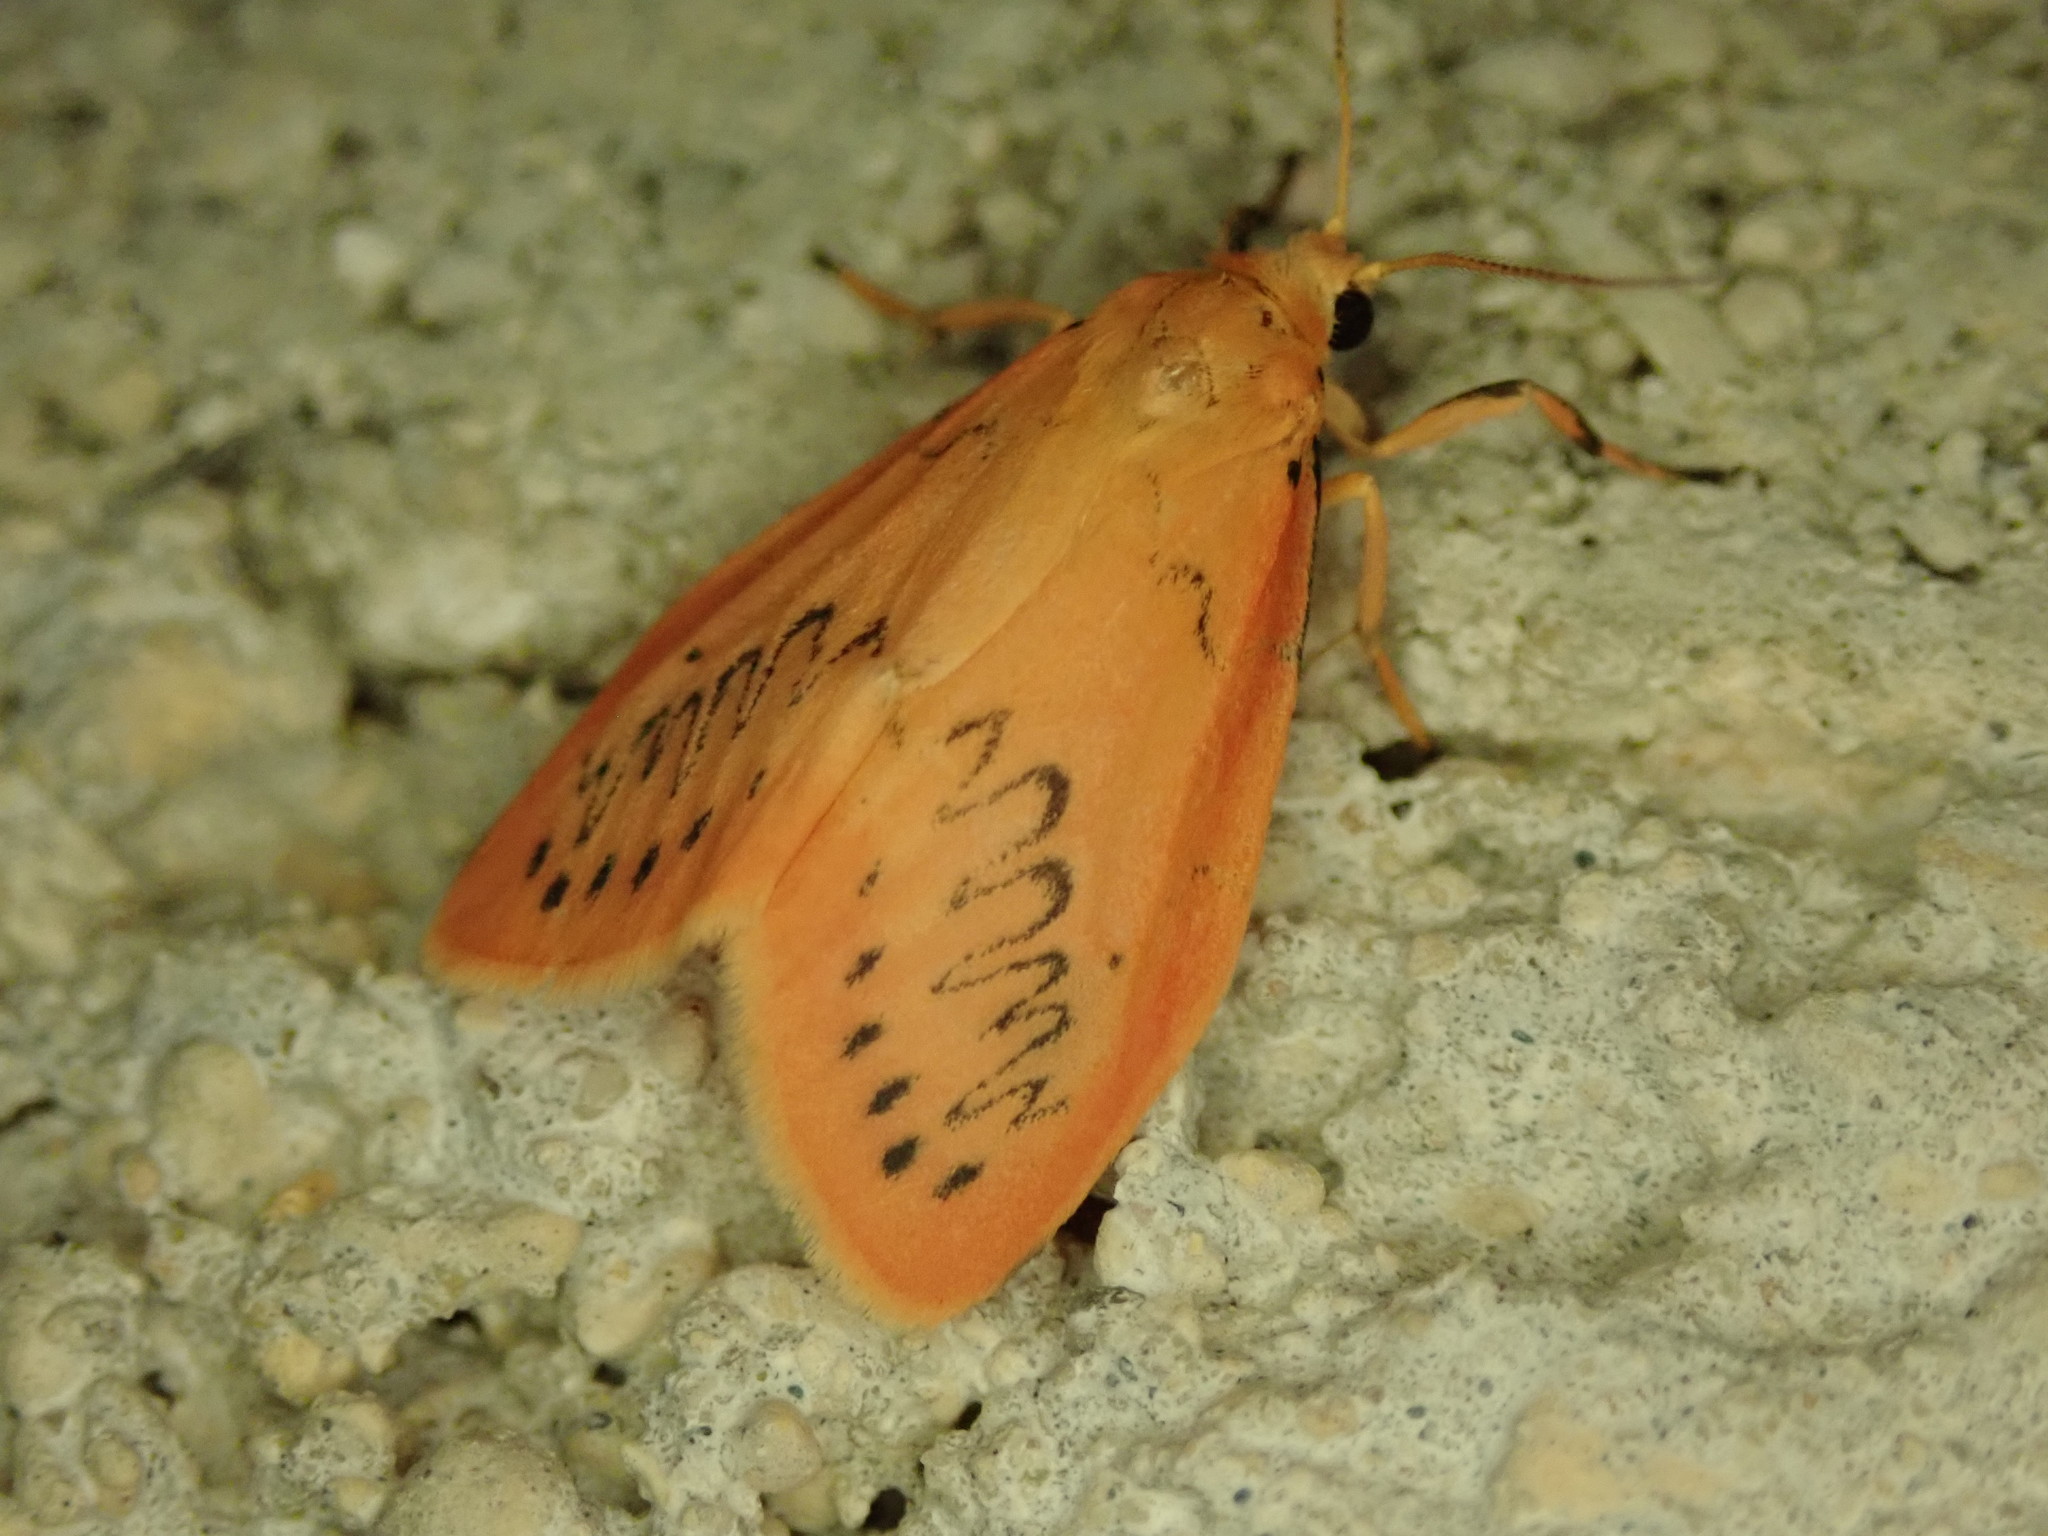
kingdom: Animalia
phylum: Arthropoda
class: Insecta
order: Lepidoptera
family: Erebidae
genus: Miltochrista
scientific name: Miltochrista miniata
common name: Rosy footman
